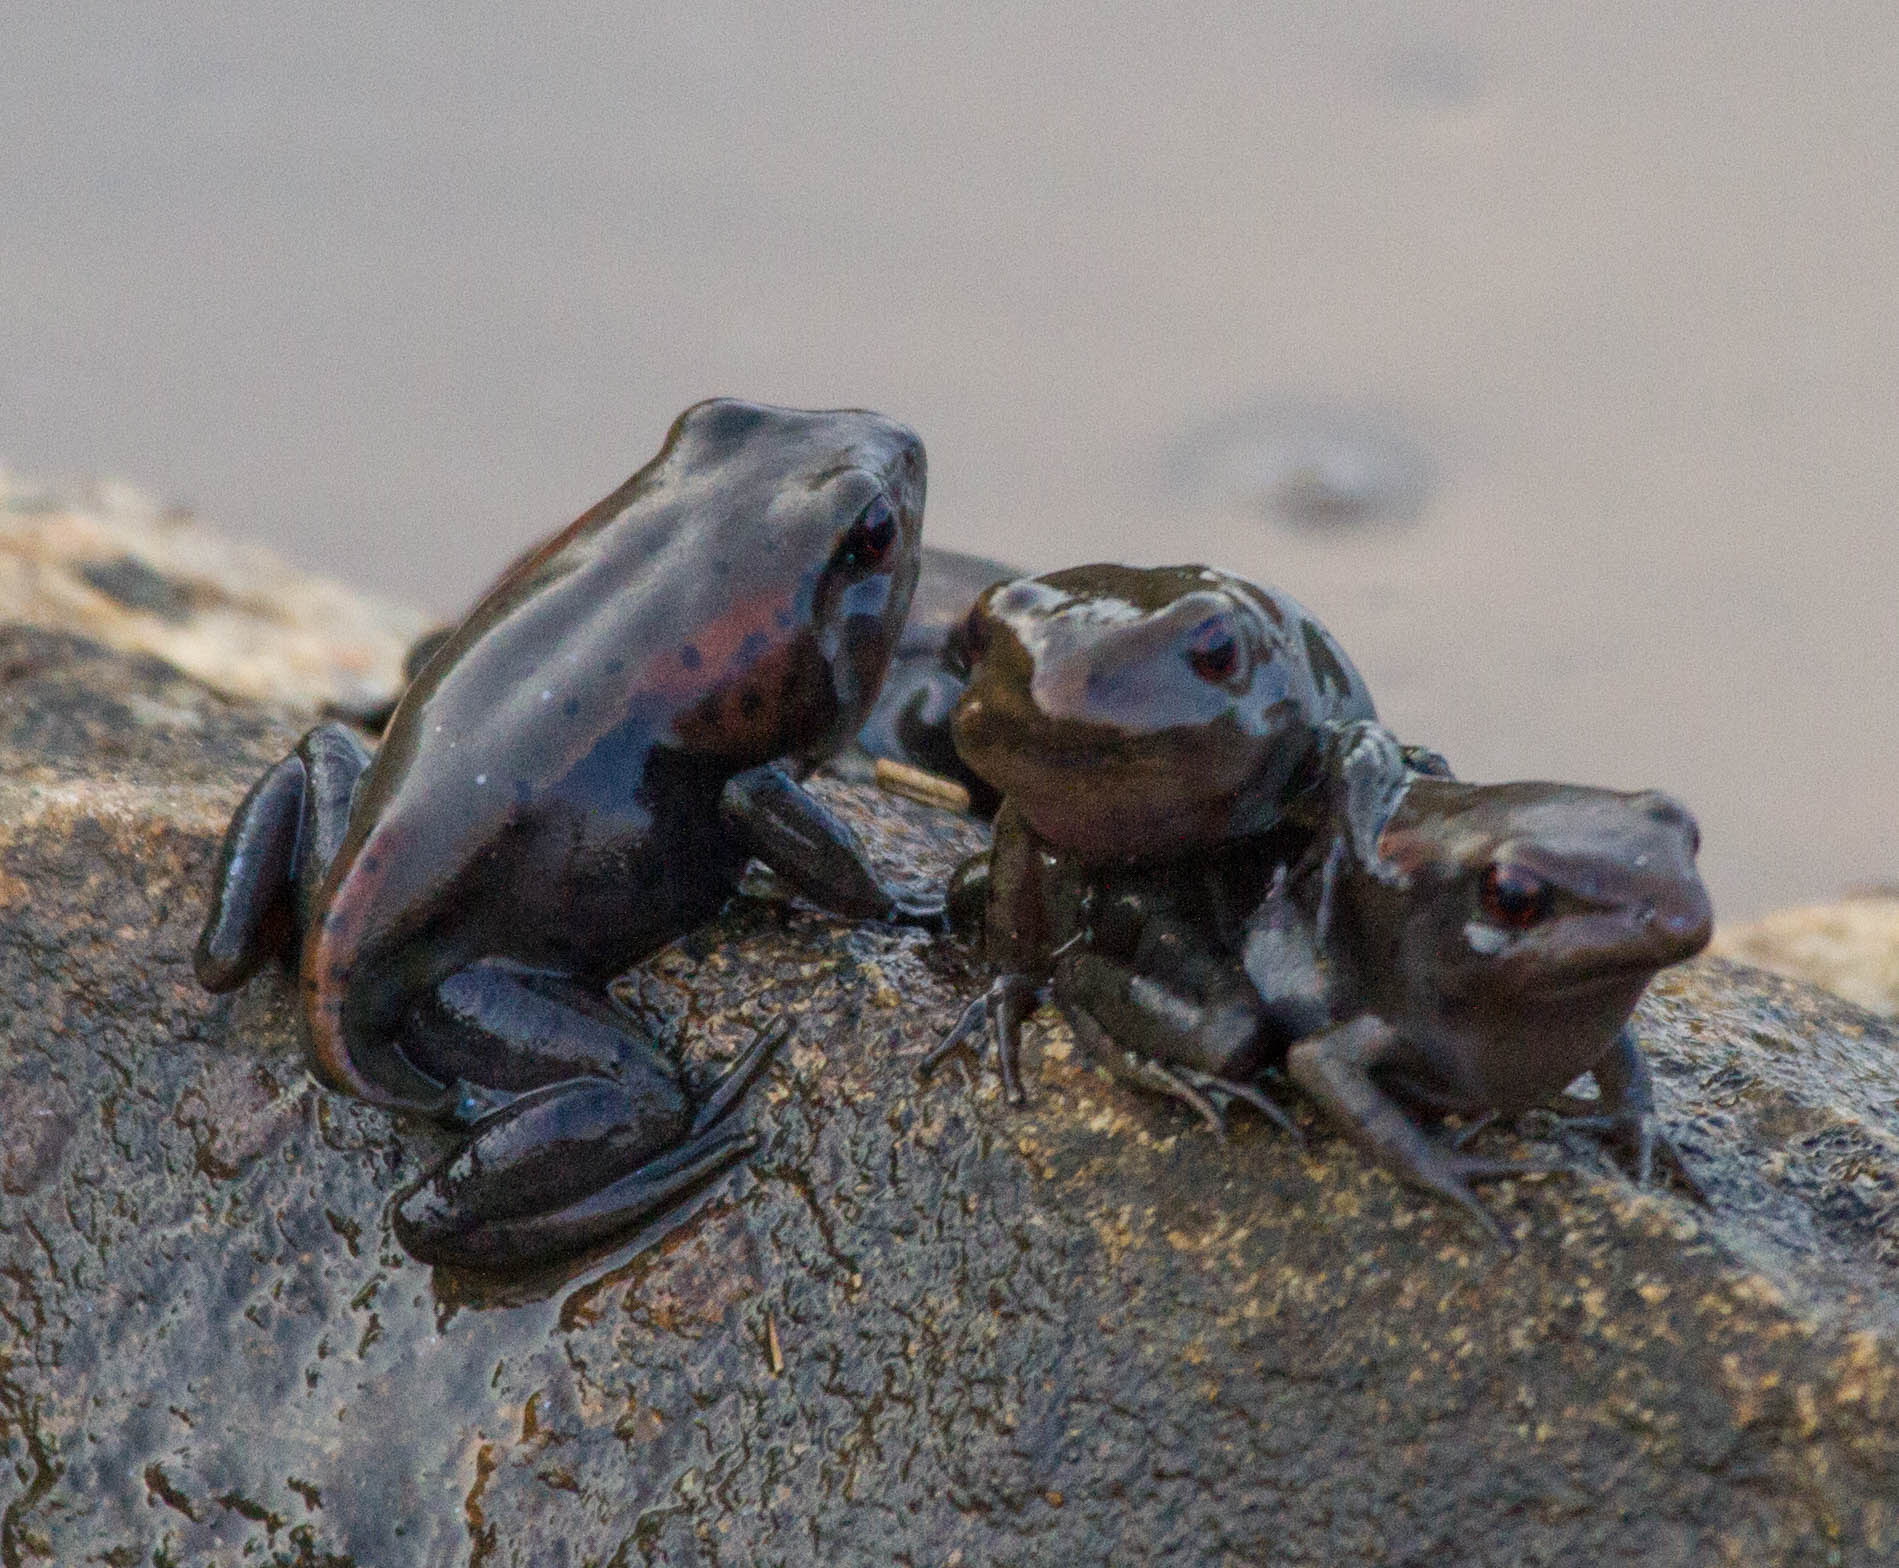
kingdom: Animalia
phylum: Chordata
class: Amphibia
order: Anura
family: Ranidae
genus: Clinotarsus
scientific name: Clinotarsus curtipes
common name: Bicoloured frog
